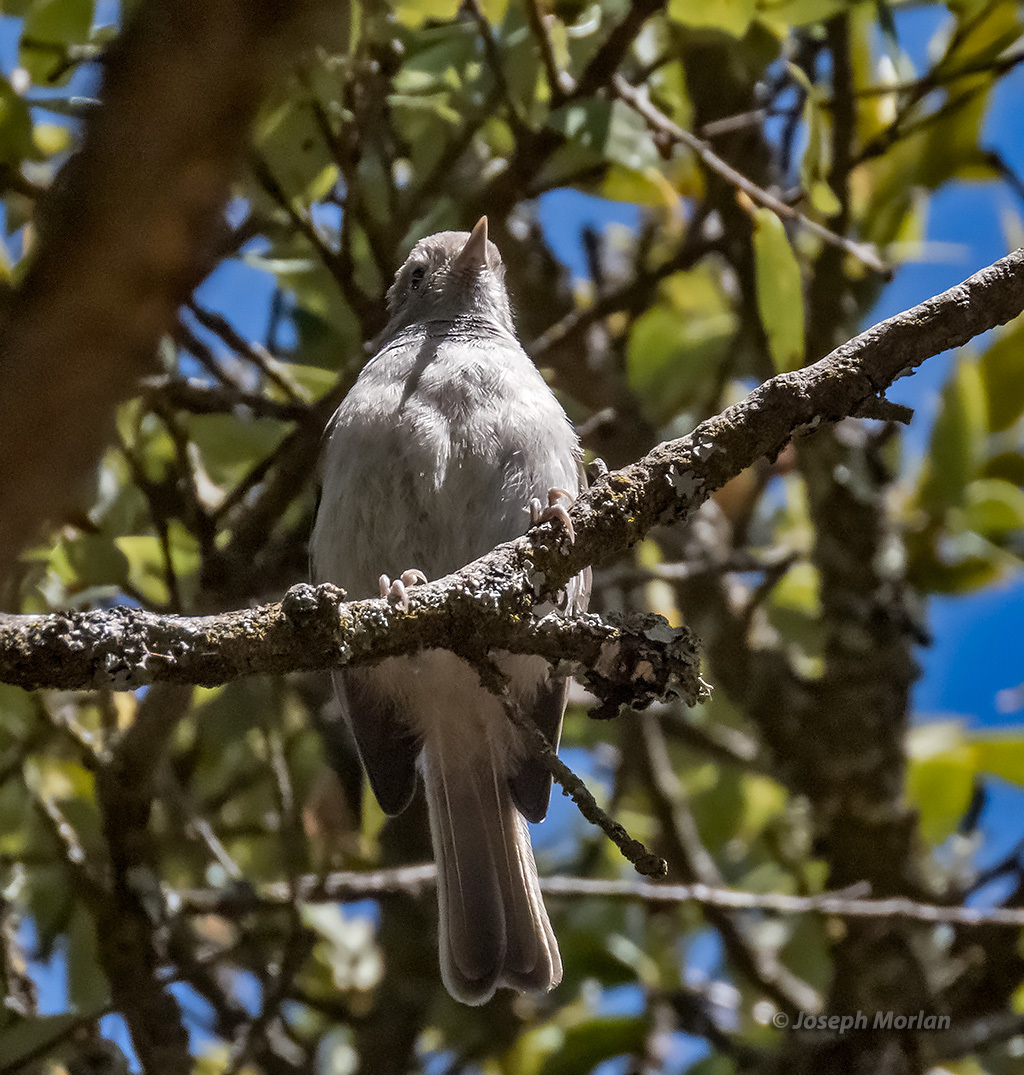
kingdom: Animalia
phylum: Chordata
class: Aves
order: Passeriformes
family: Paridae
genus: Baeolophus
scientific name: Baeolophus inornatus
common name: Oak titmouse
